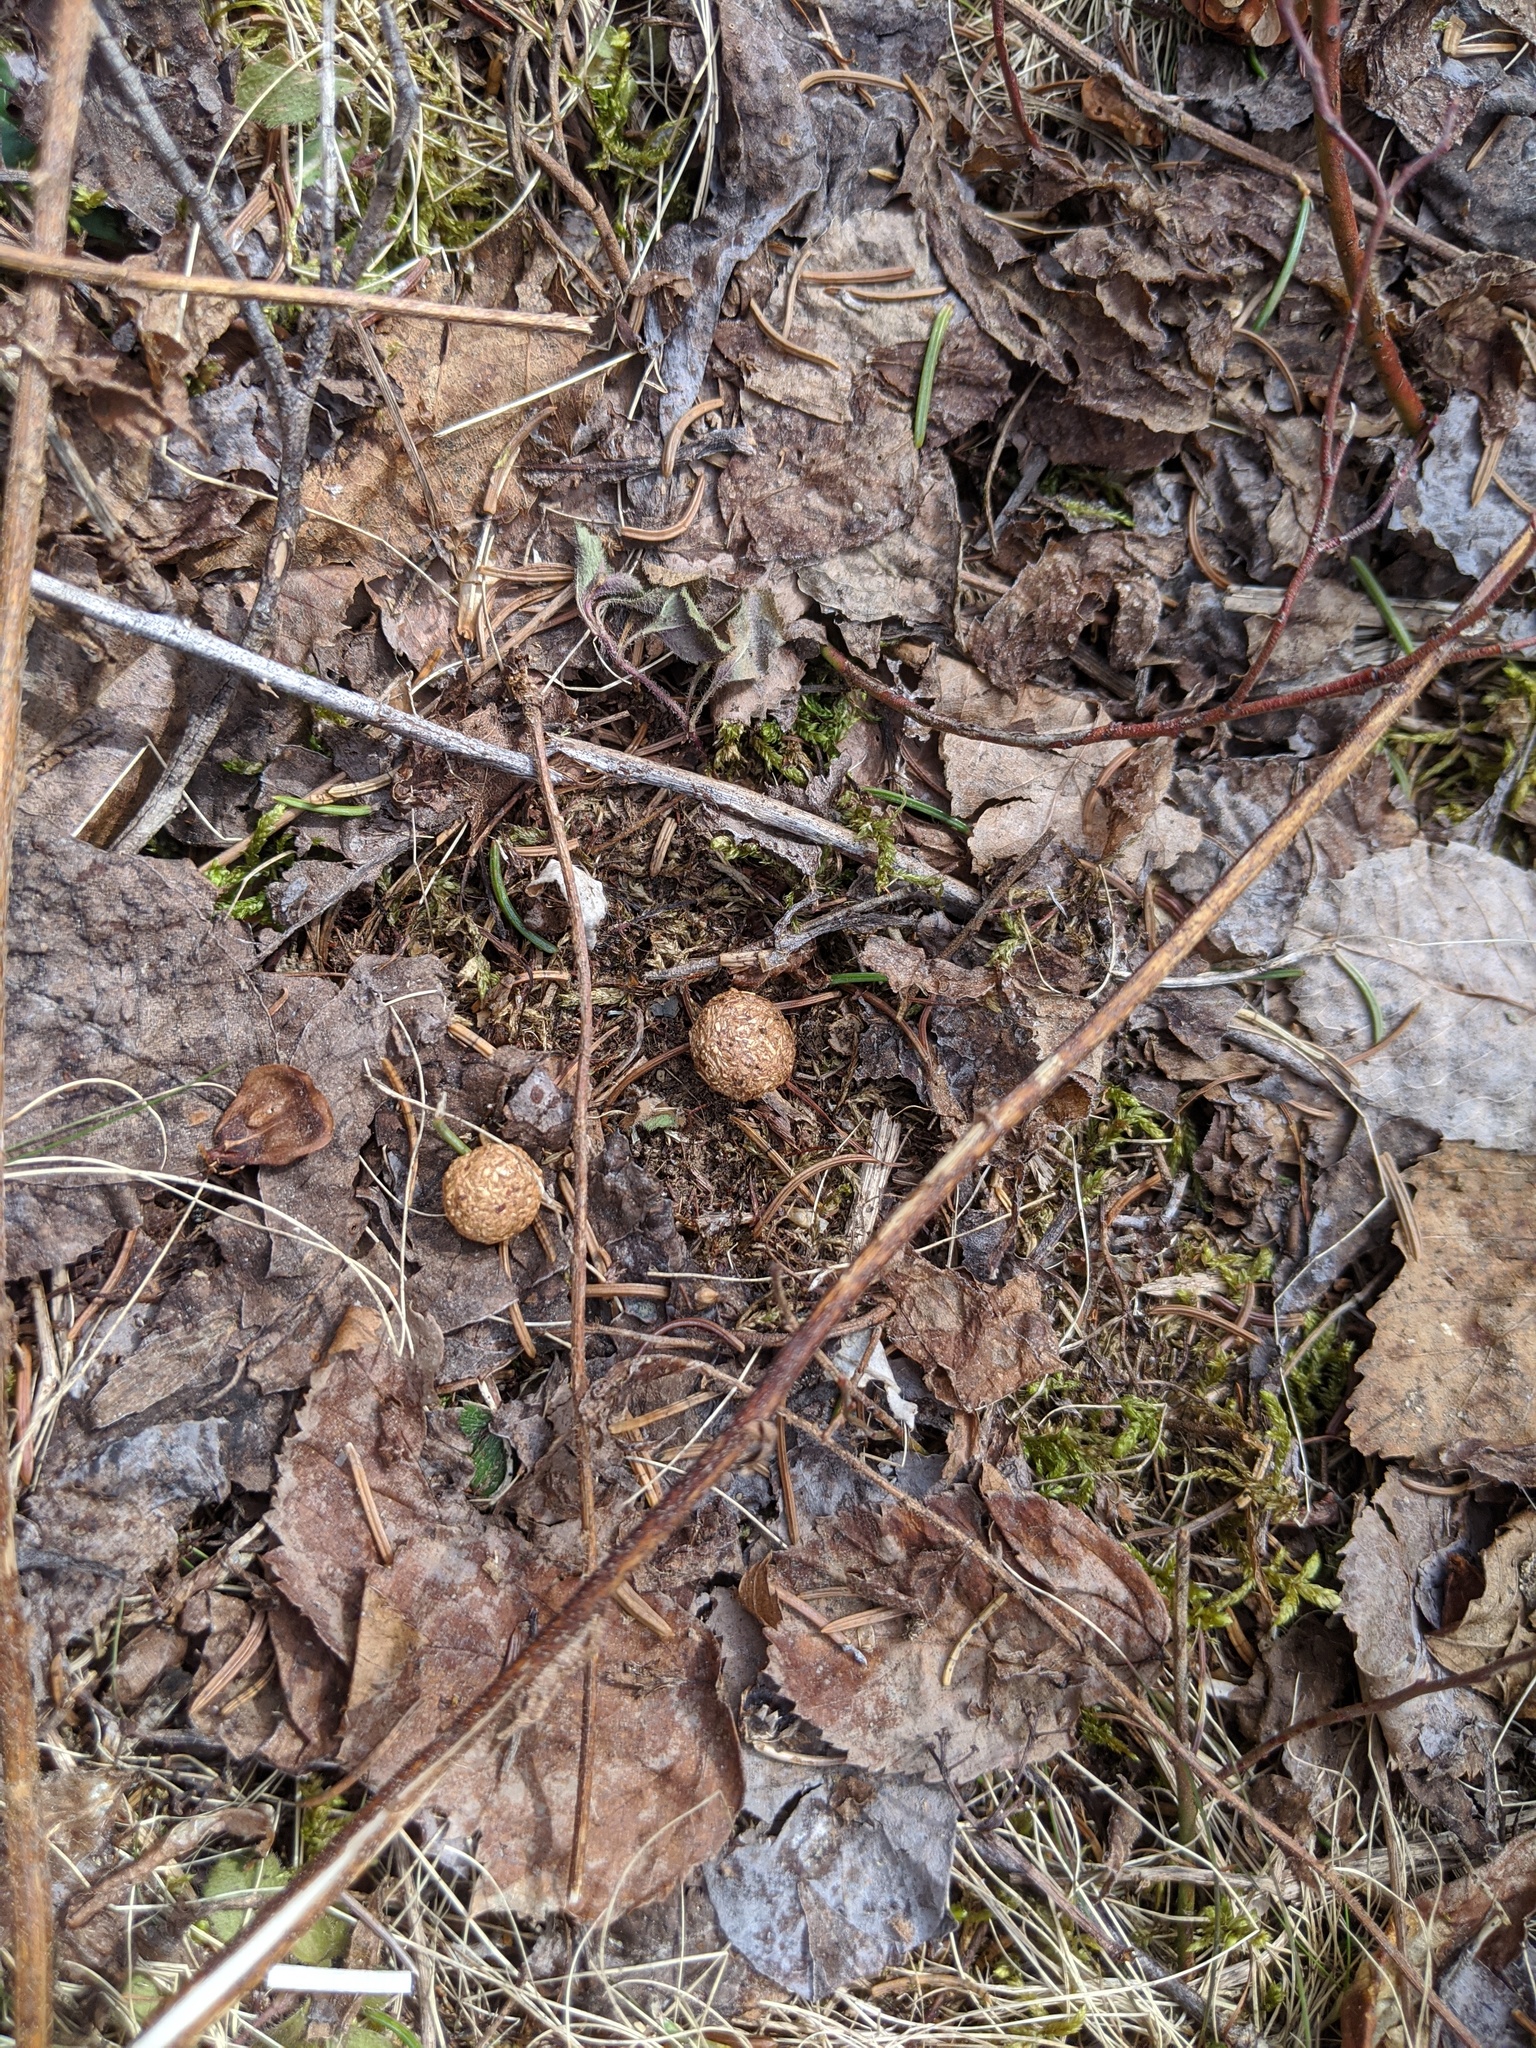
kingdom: Animalia
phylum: Chordata
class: Mammalia
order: Lagomorpha
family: Leporidae
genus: Lepus
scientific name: Lepus americanus
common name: Snowshoe hare
